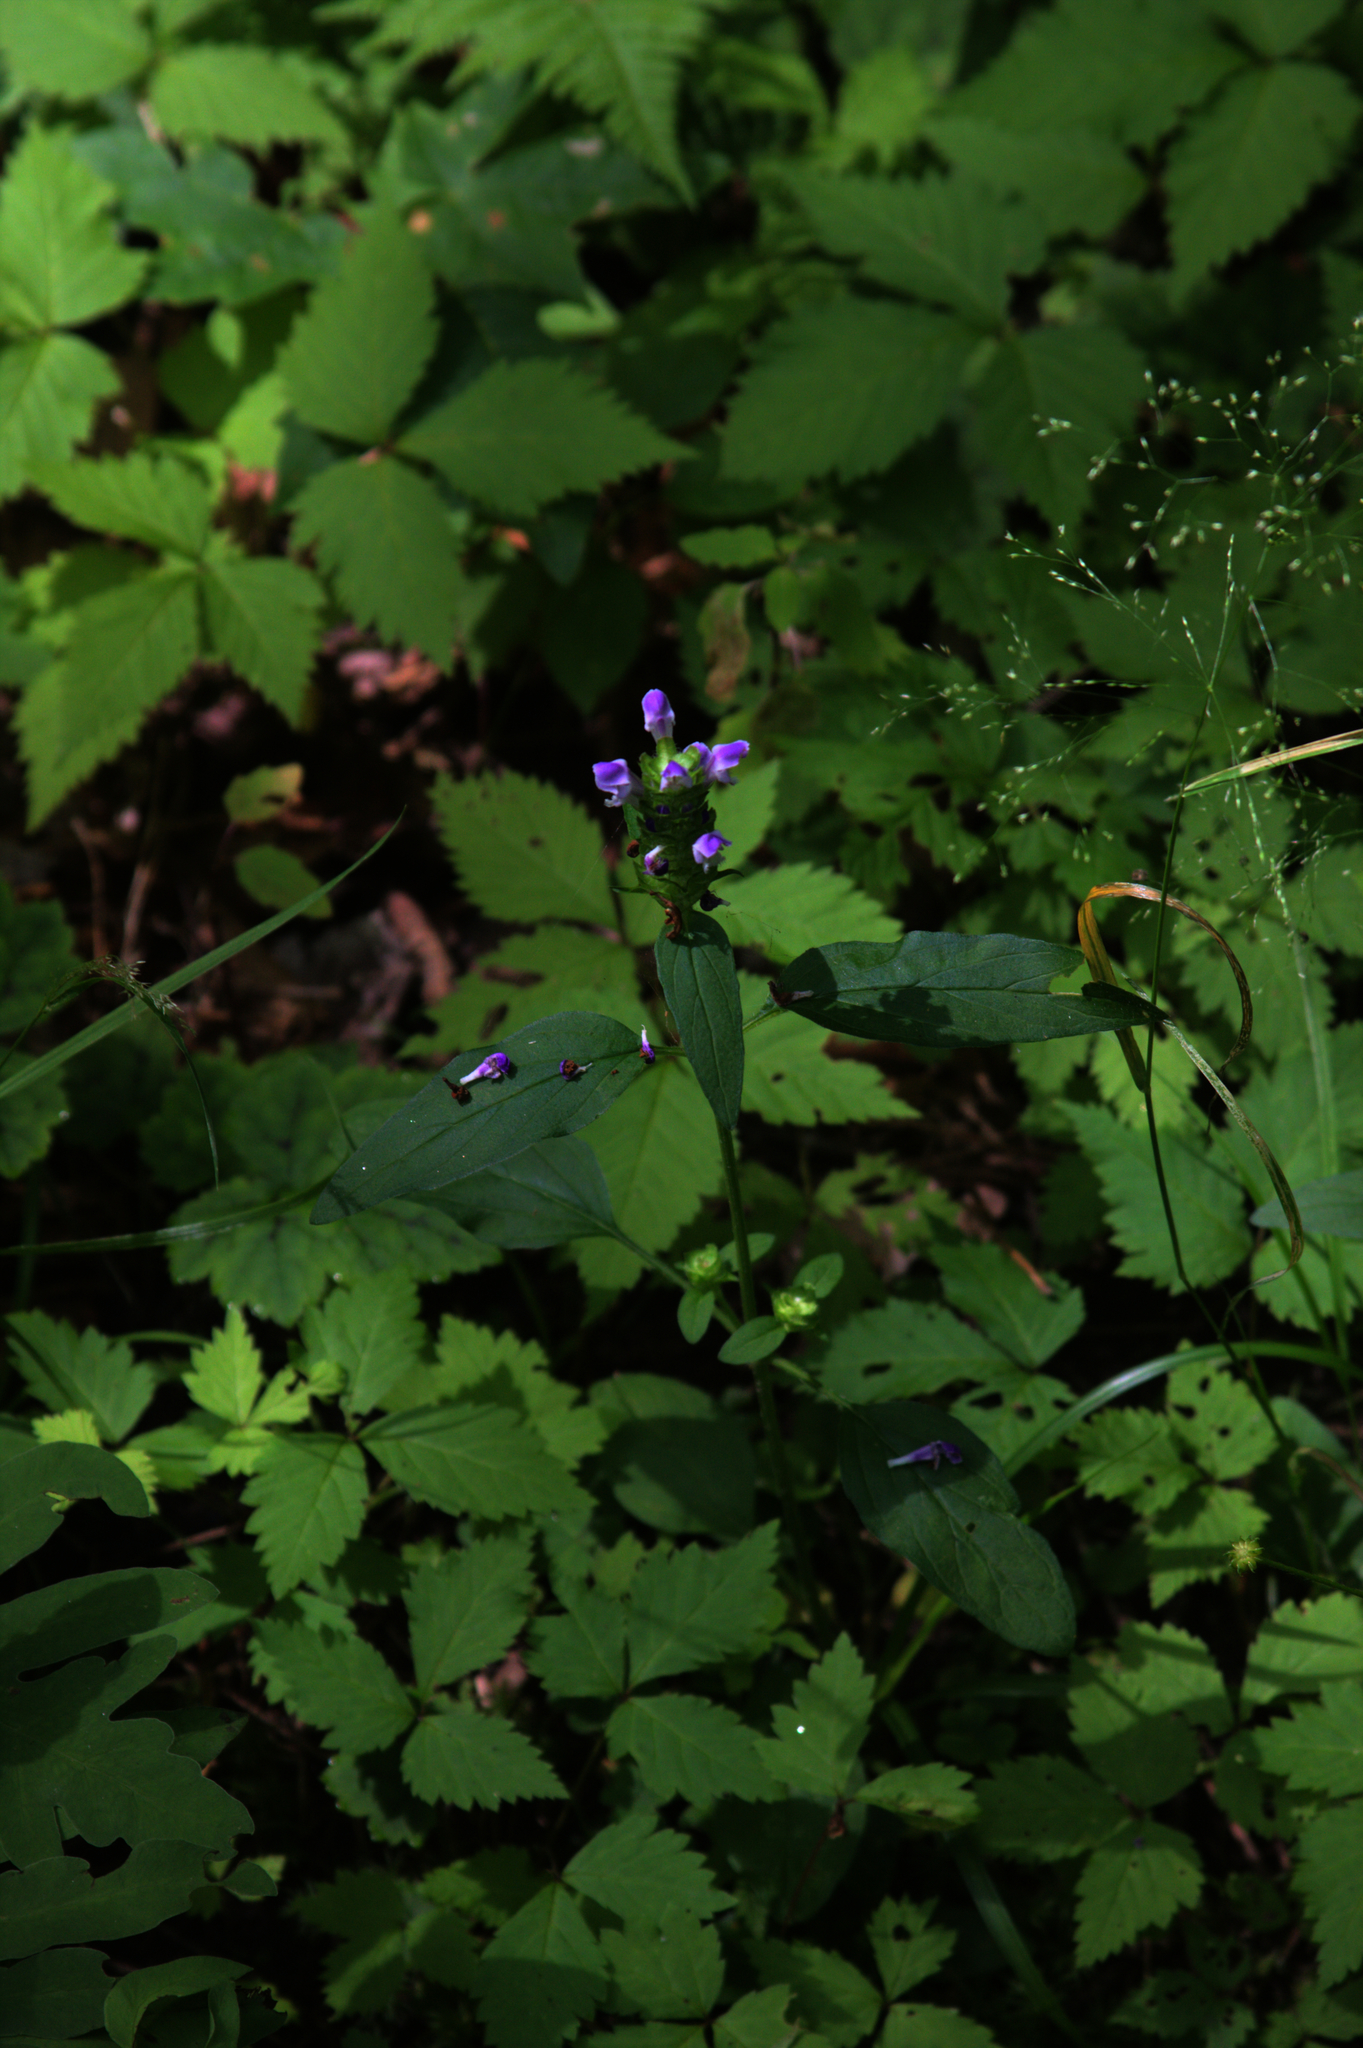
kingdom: Plantae
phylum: Tracheophyta
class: Magnoliopsida
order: Lamiales
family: Lamiaceae
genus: Prunella
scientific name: Prunella vulgaris
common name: Heal-all
